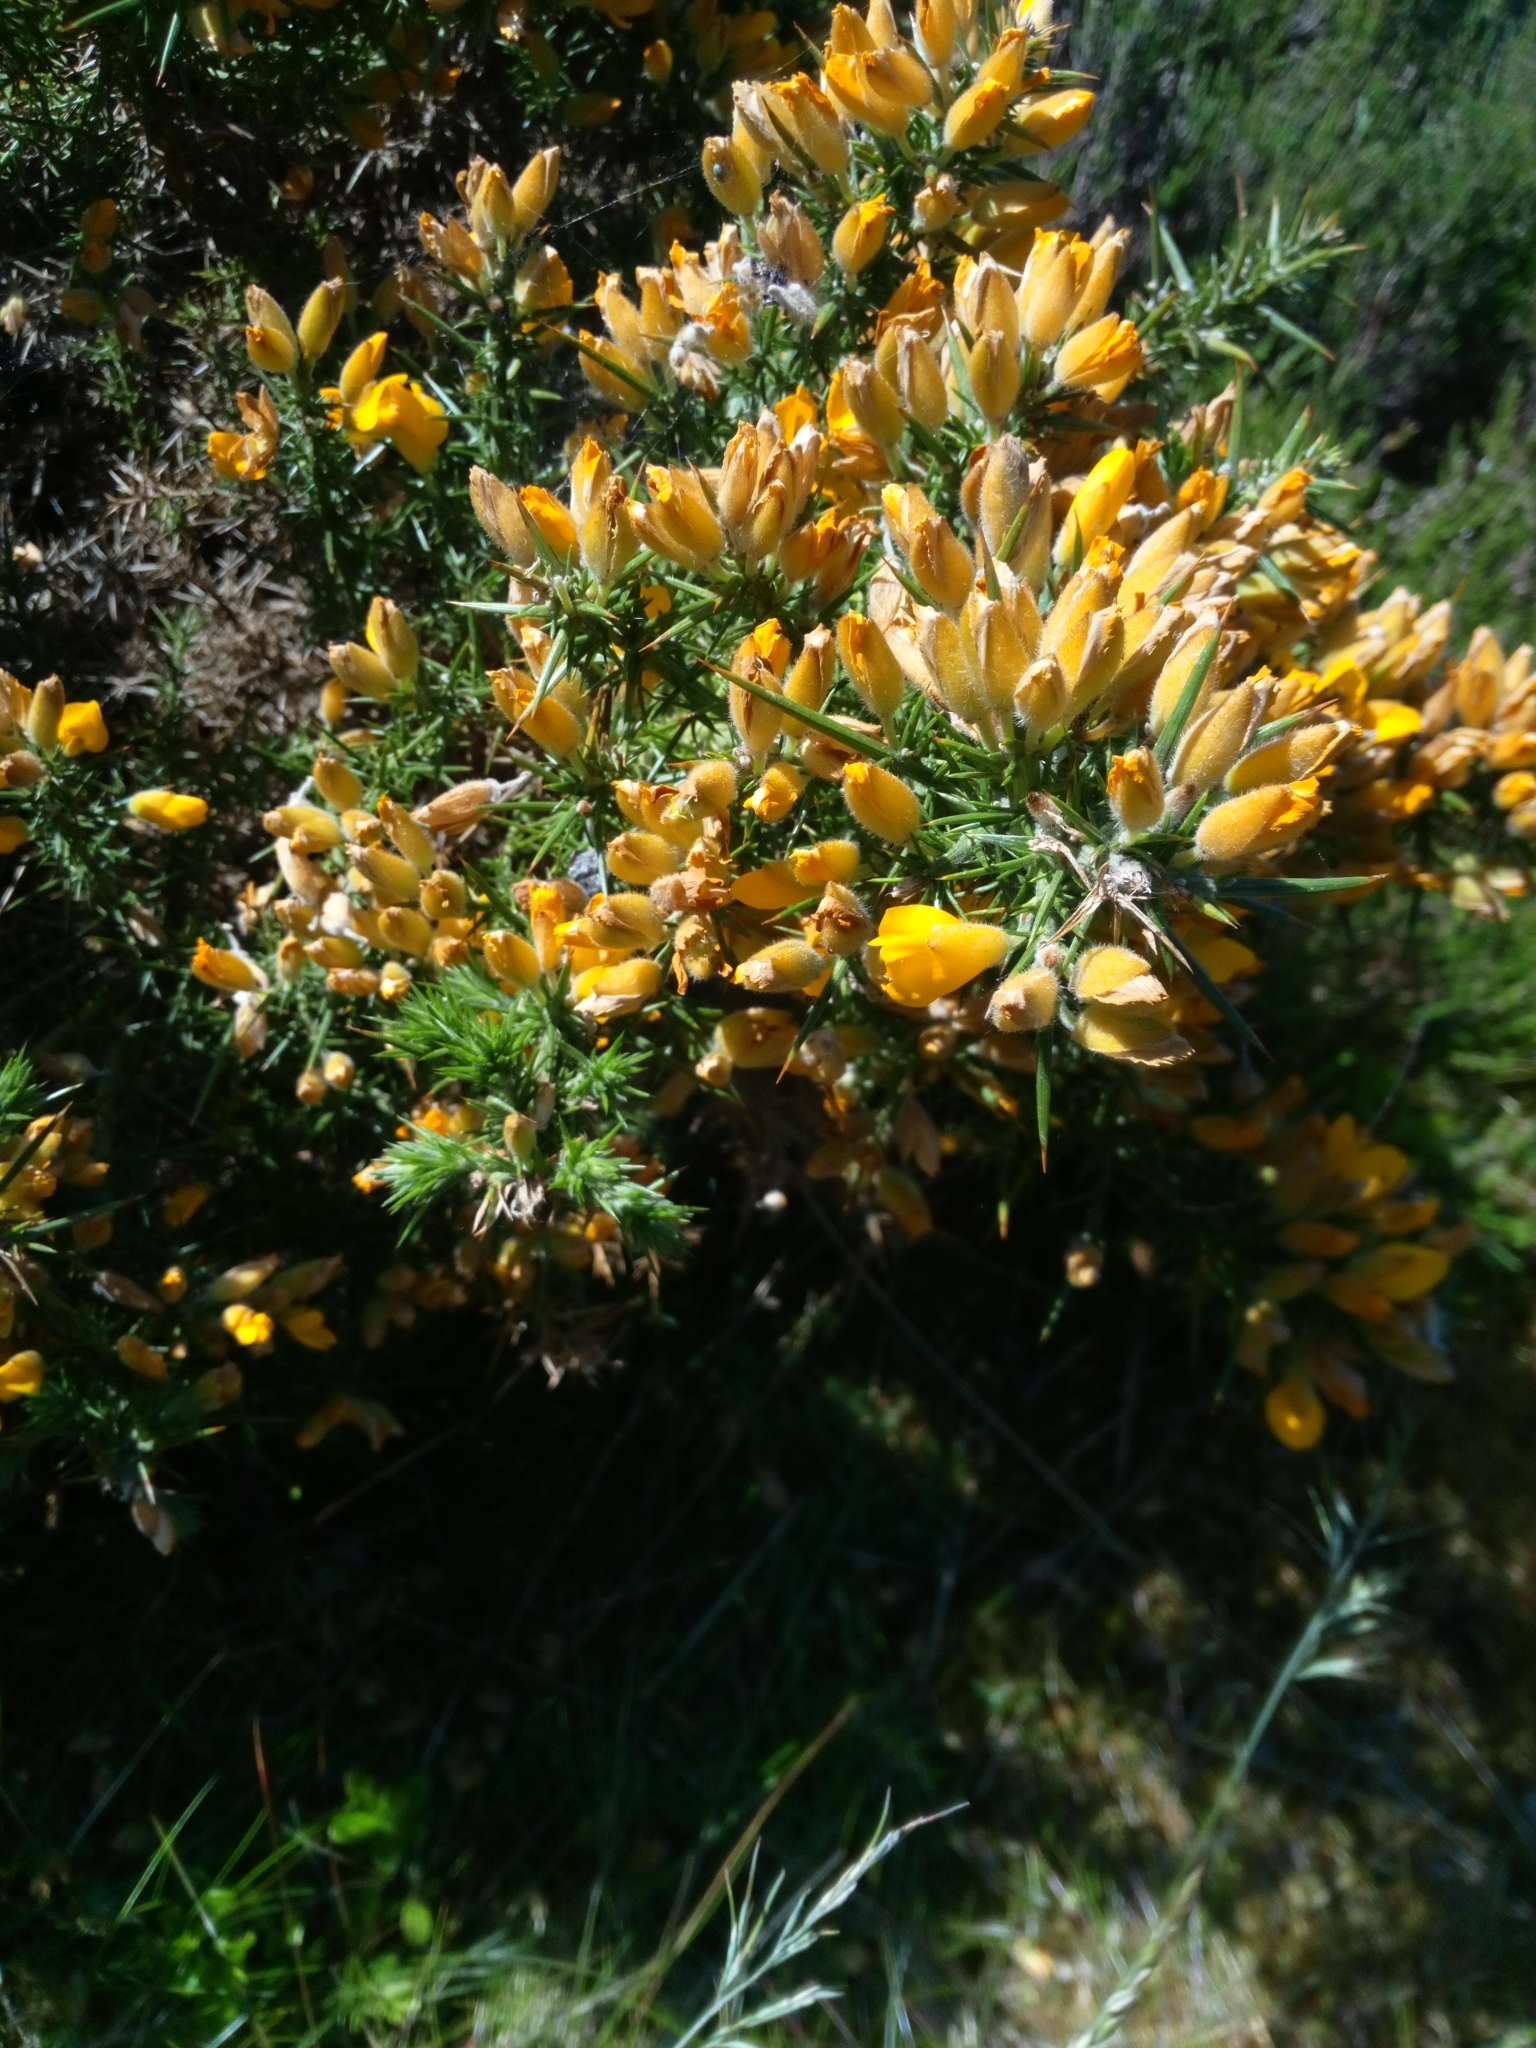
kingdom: Plantae
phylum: Tracheophyta
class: Magnoliopsida
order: Fabales
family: Fabaceae
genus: Ulex
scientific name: Ulex europaeus
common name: Common gorse
